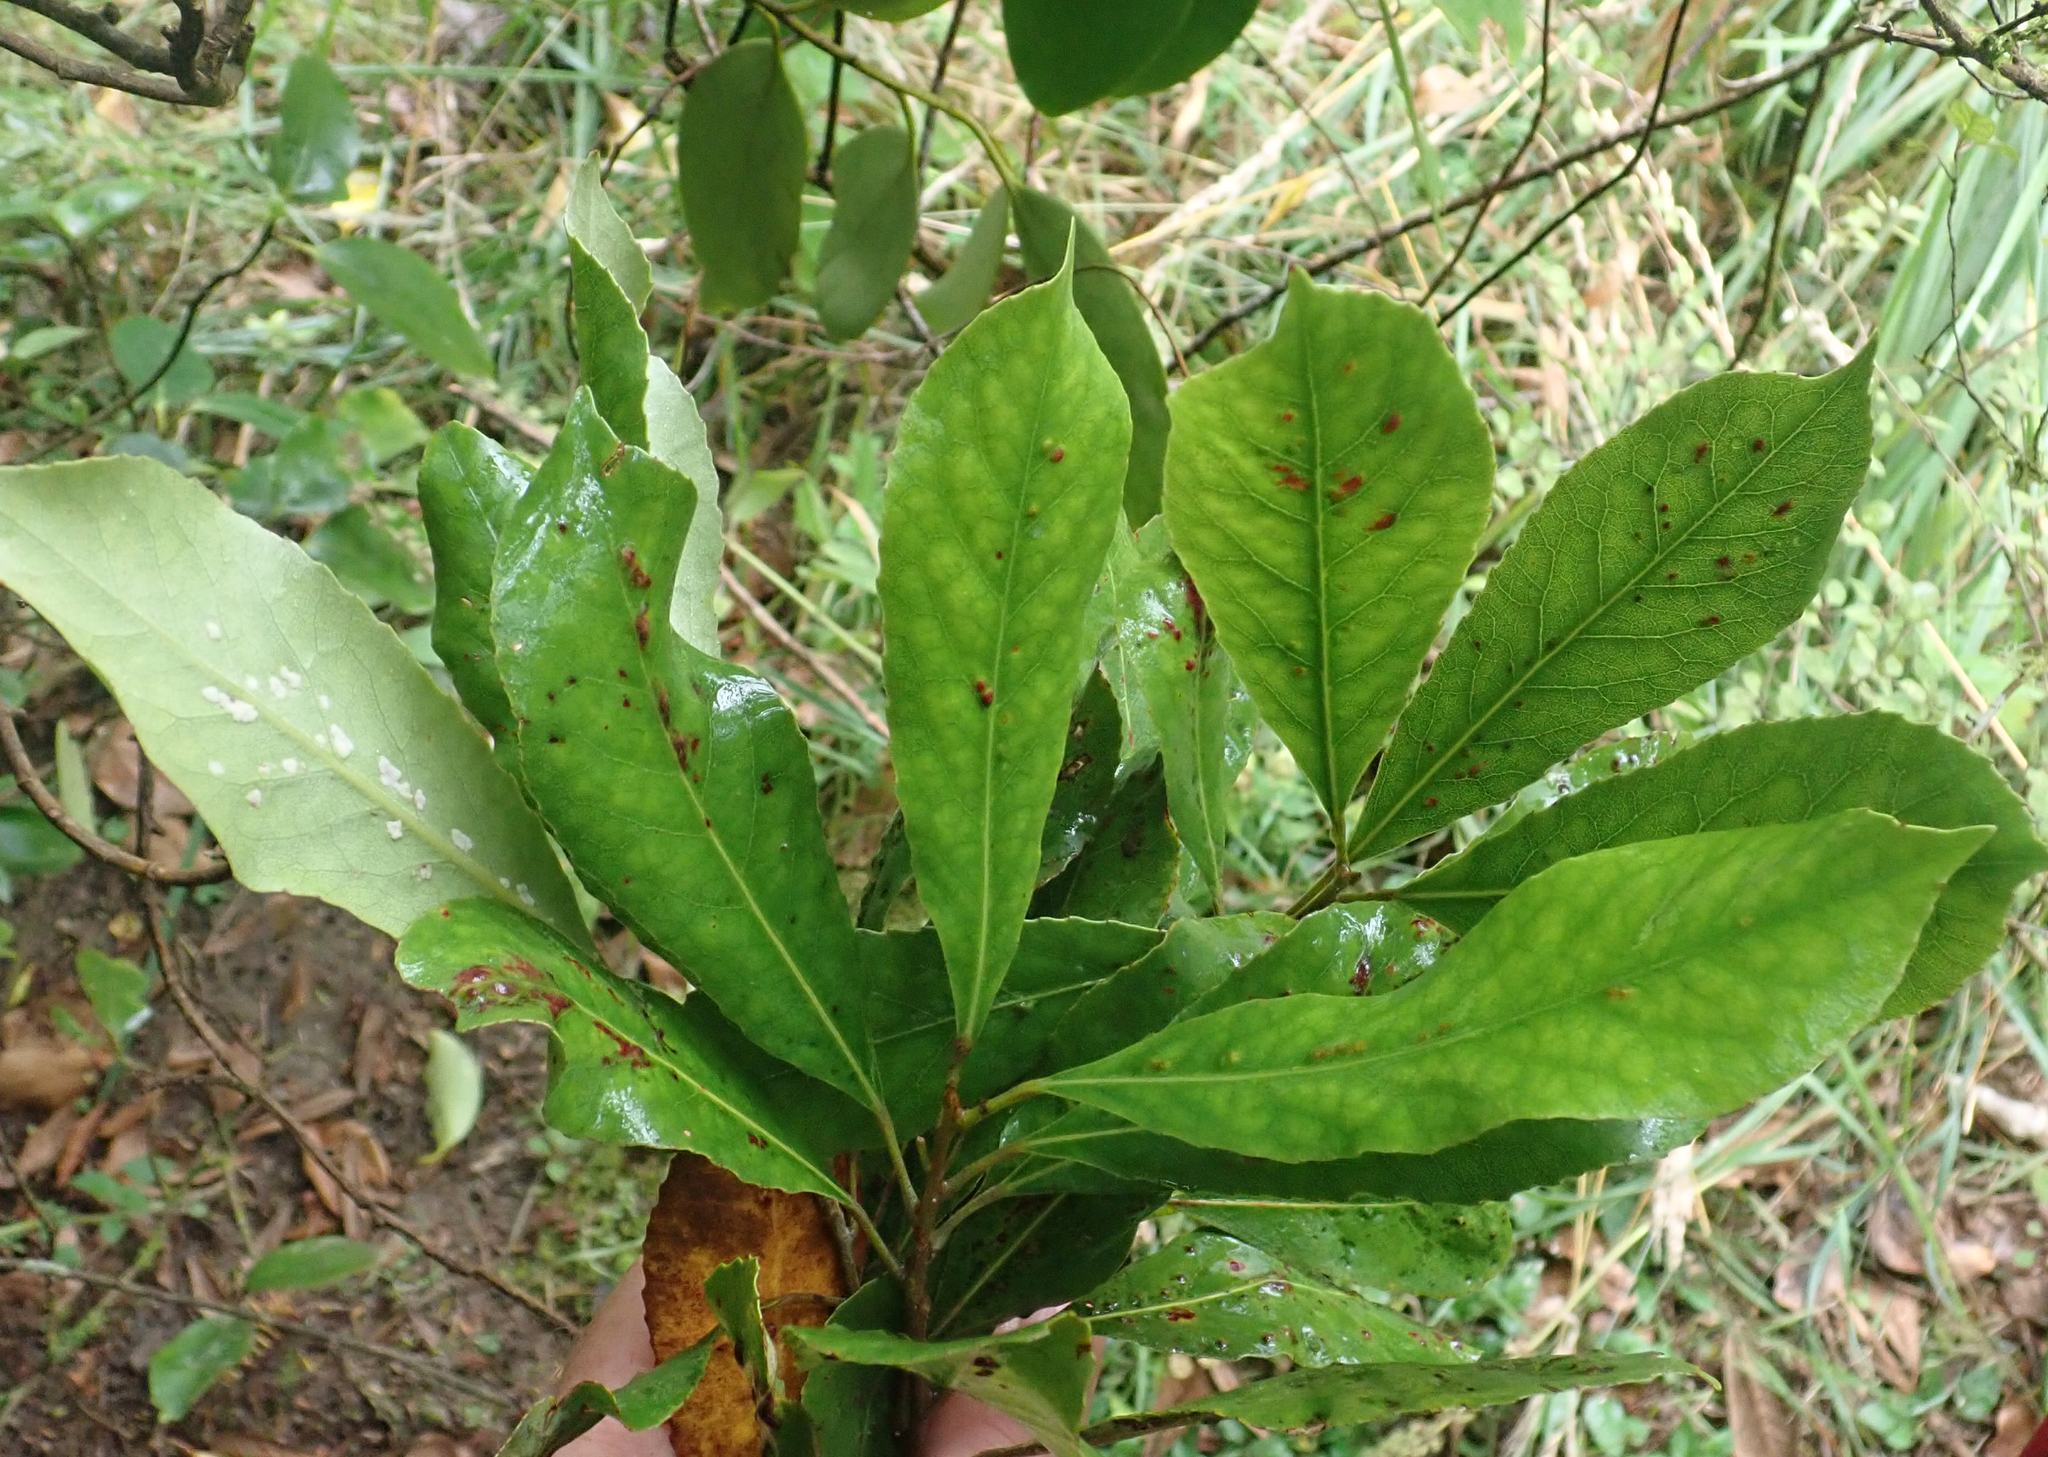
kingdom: Plantae
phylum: Tracheophyta
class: Magnoliopsida
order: Oxalidales
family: Elaeocarpaceae
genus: Elaeocarpus
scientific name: Elaeocarpus dentatus
